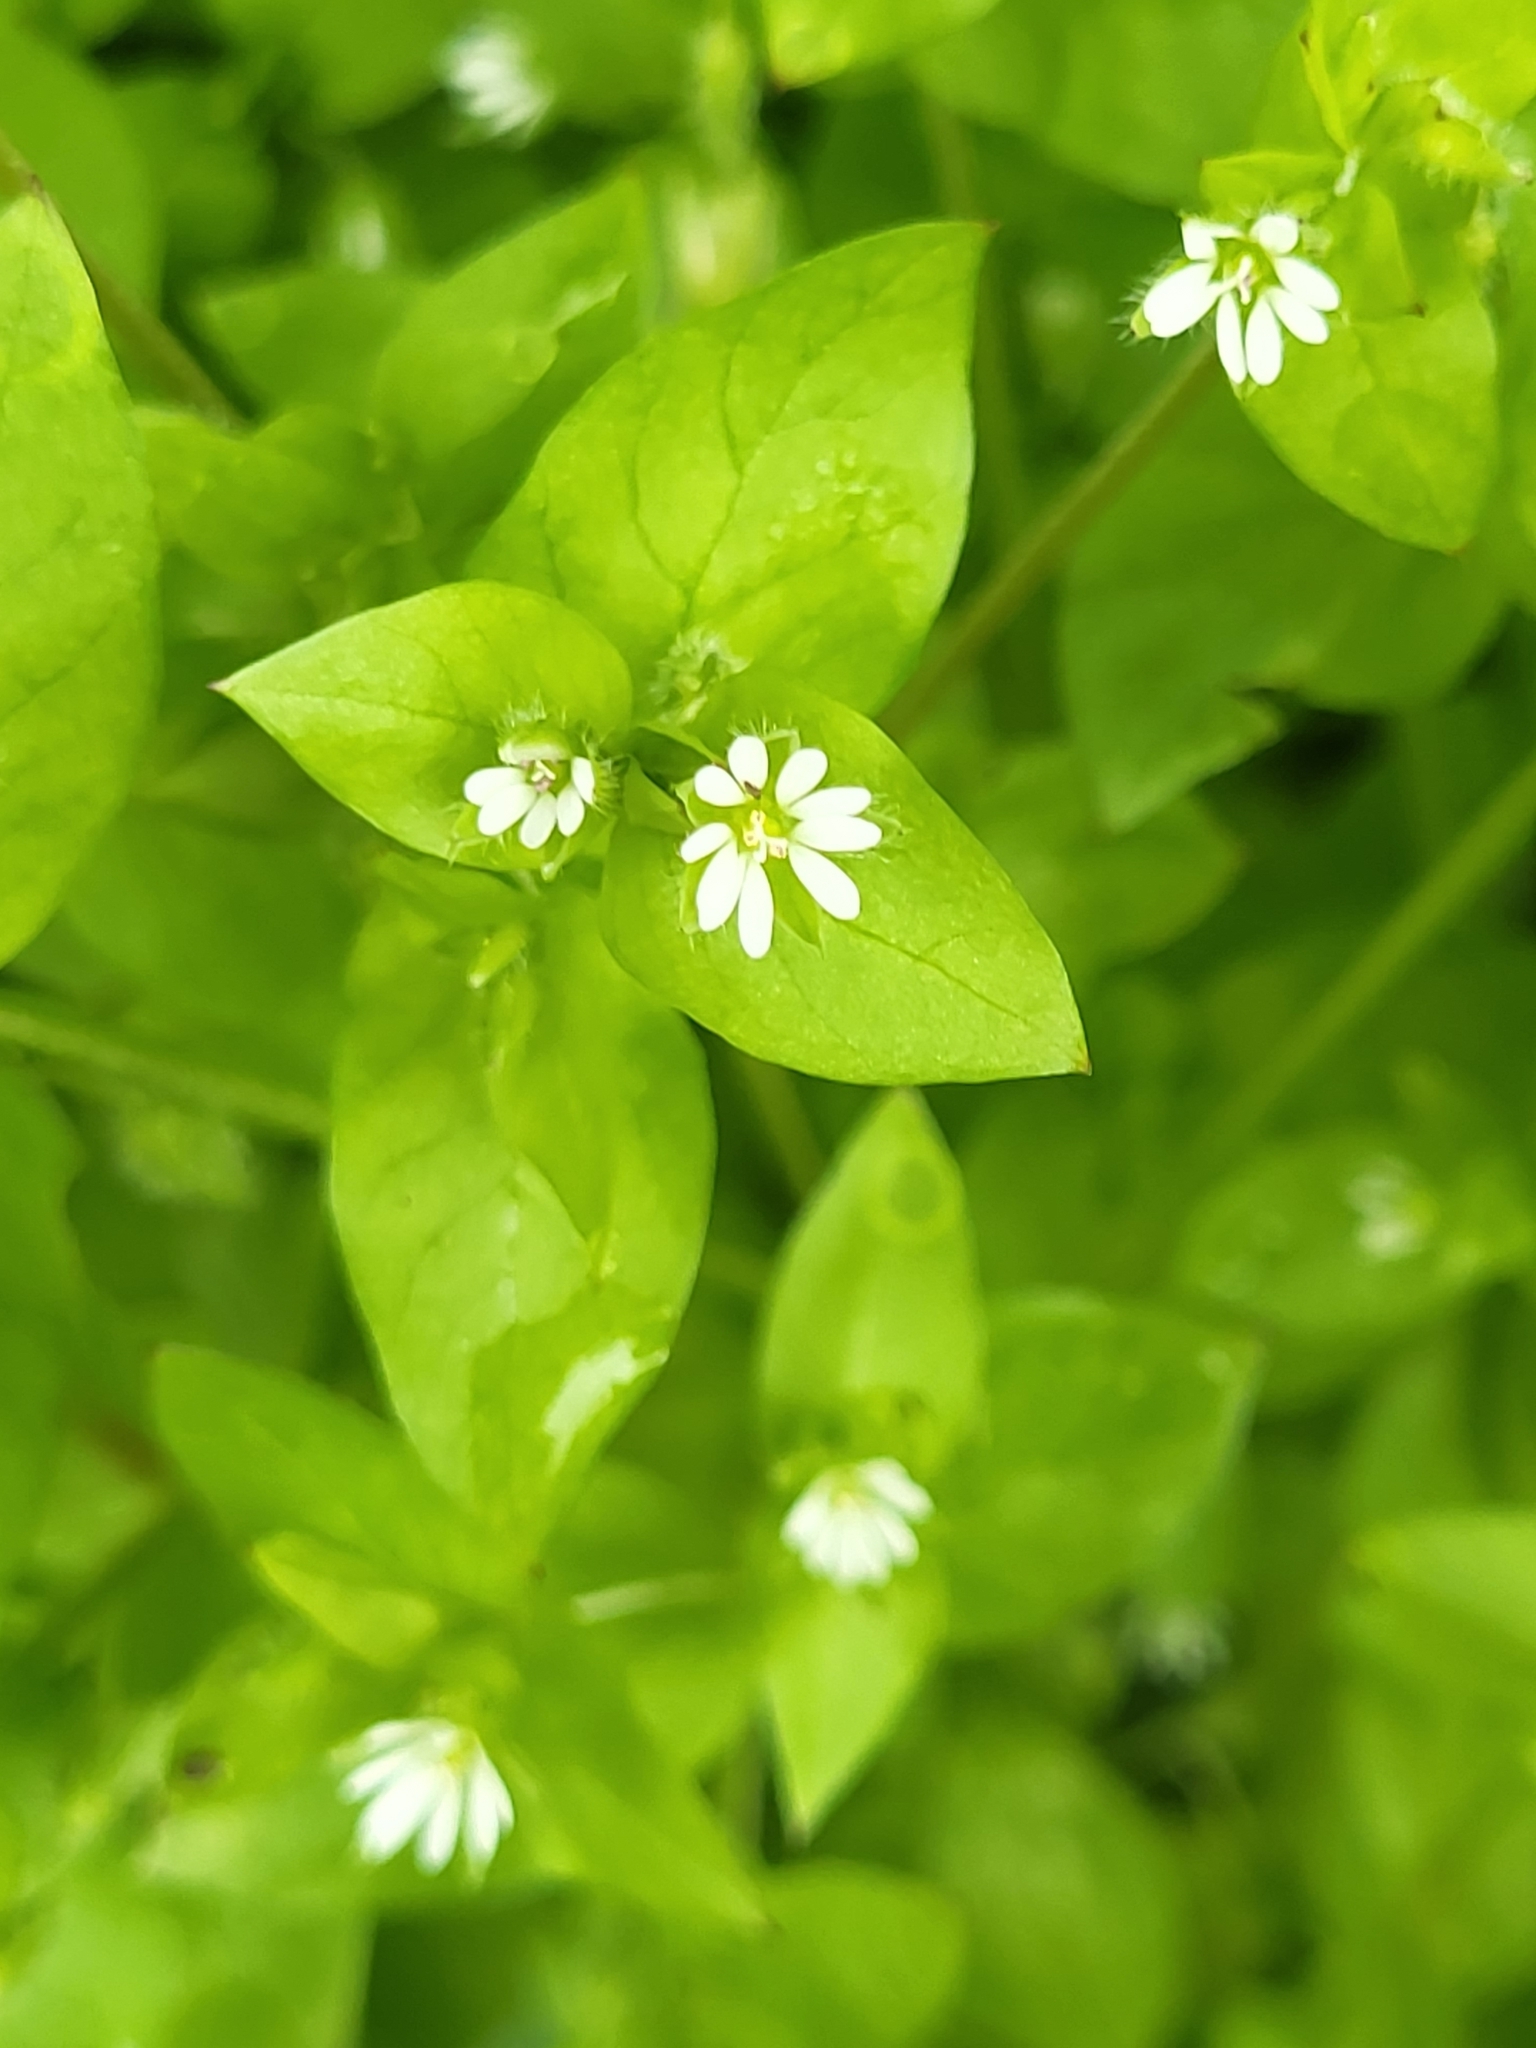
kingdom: Plantae
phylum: Tracheophyta
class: Magnoliopsida
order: Caryophyllales
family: Caryophyllaceae
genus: Stellaria
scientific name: Stellaria media
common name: Common chickweed
